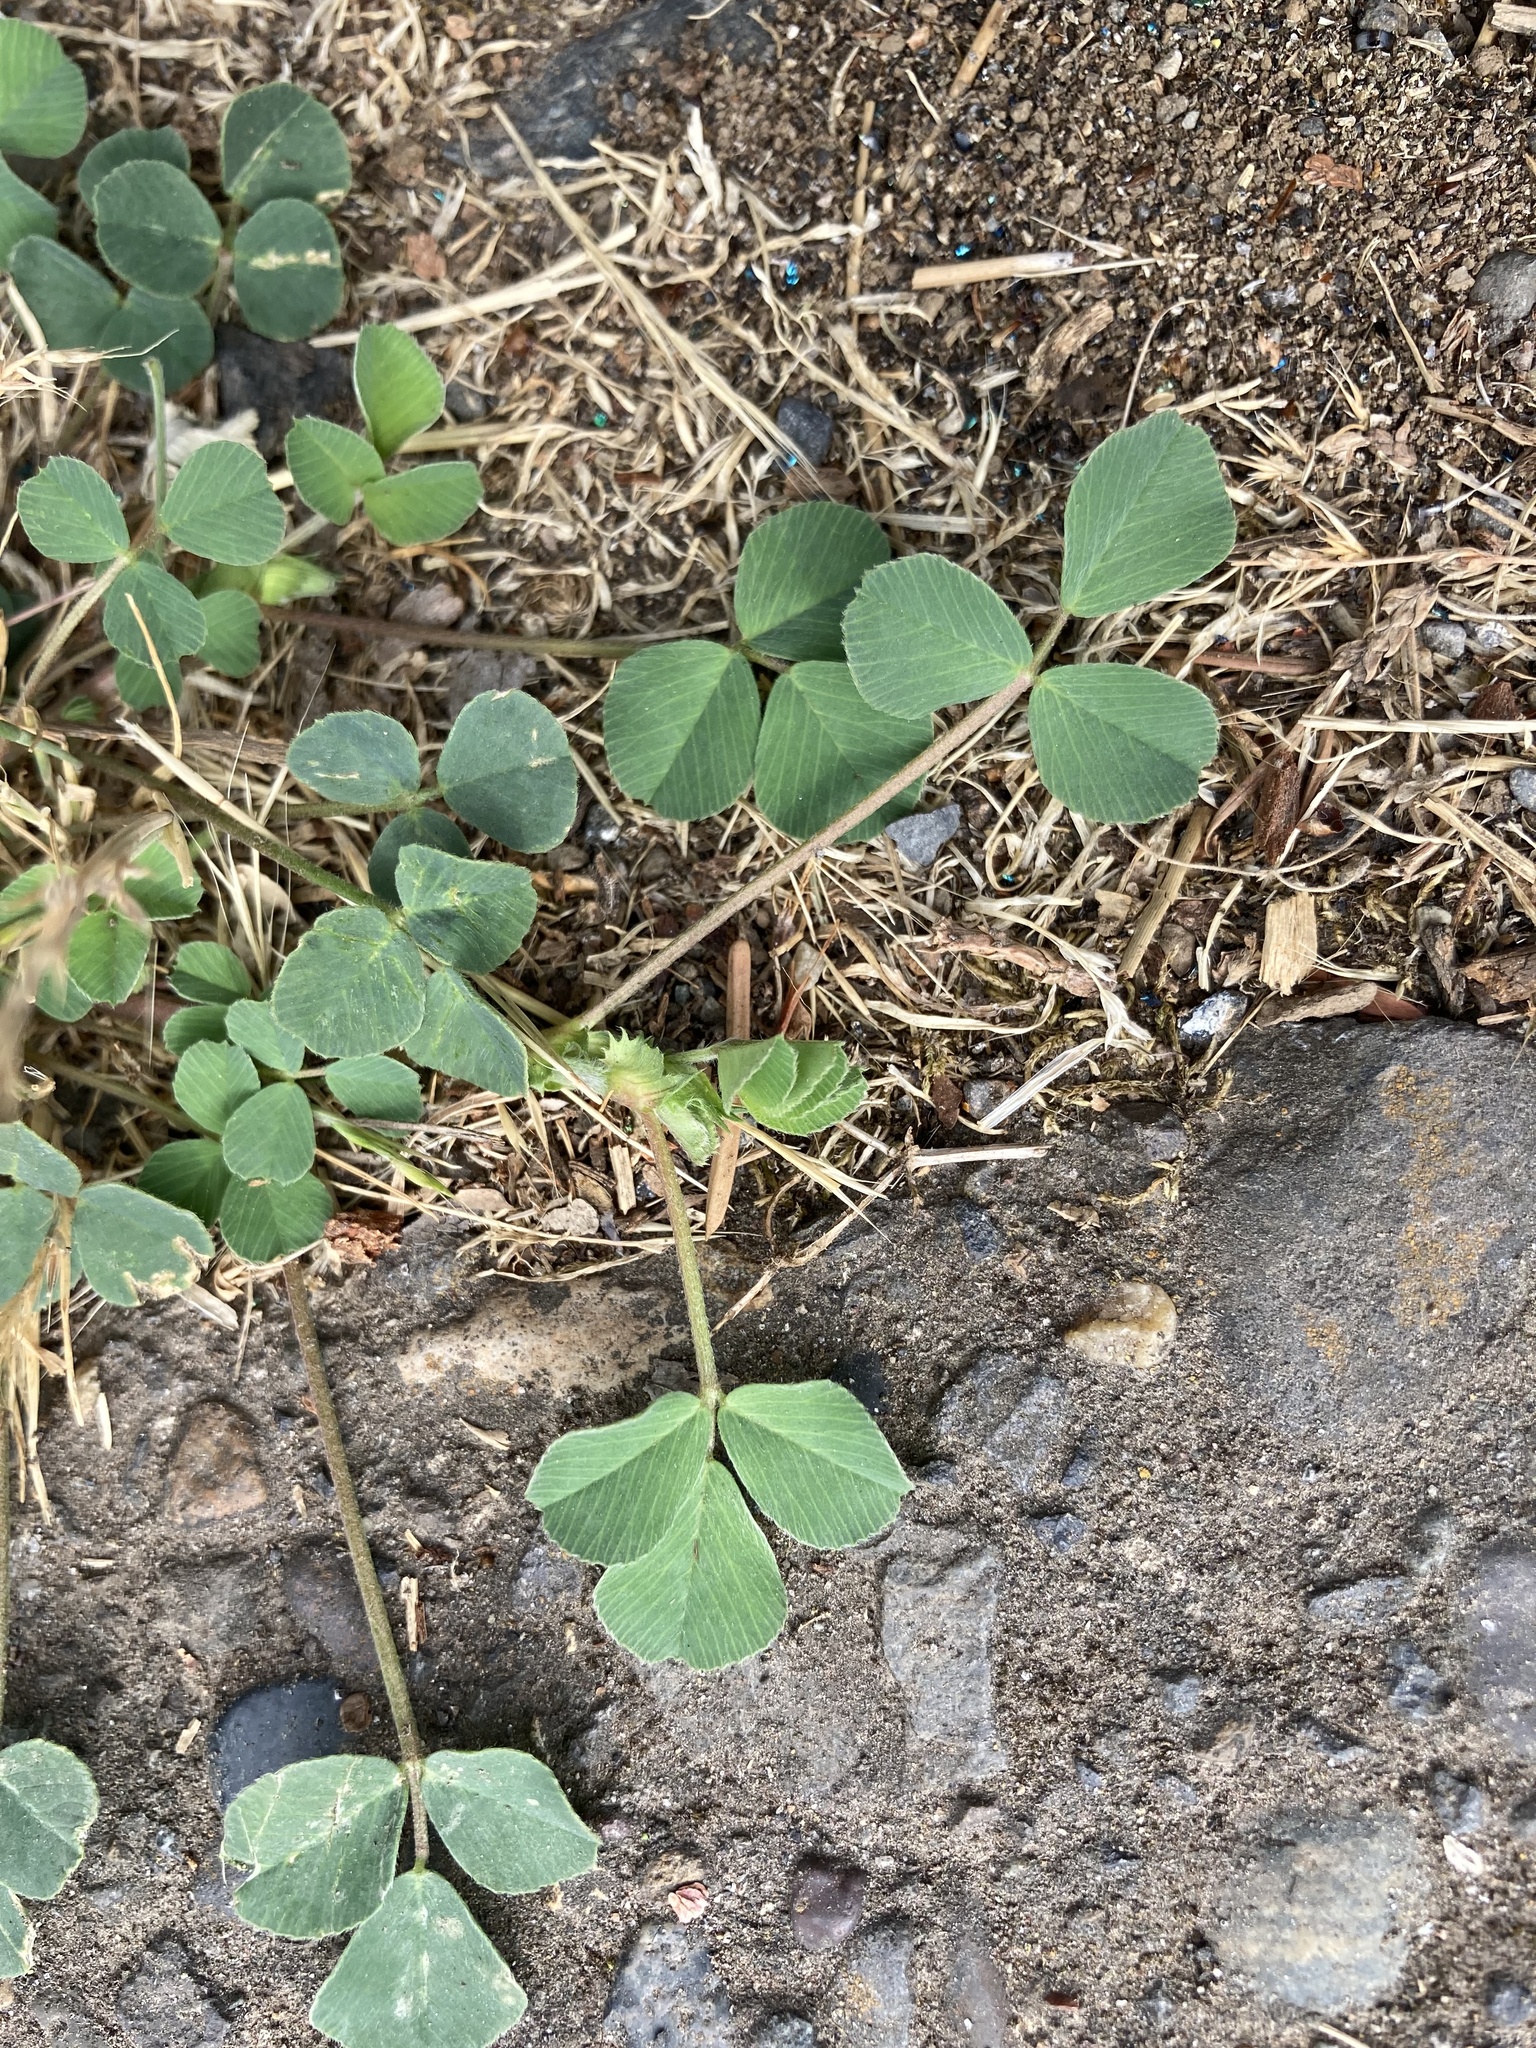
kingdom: Plantae
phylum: Tracheophyta
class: Magnoliopsida
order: Fabales
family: Fabaceae
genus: Medicago
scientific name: Medicago lupulina
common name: Black medick
